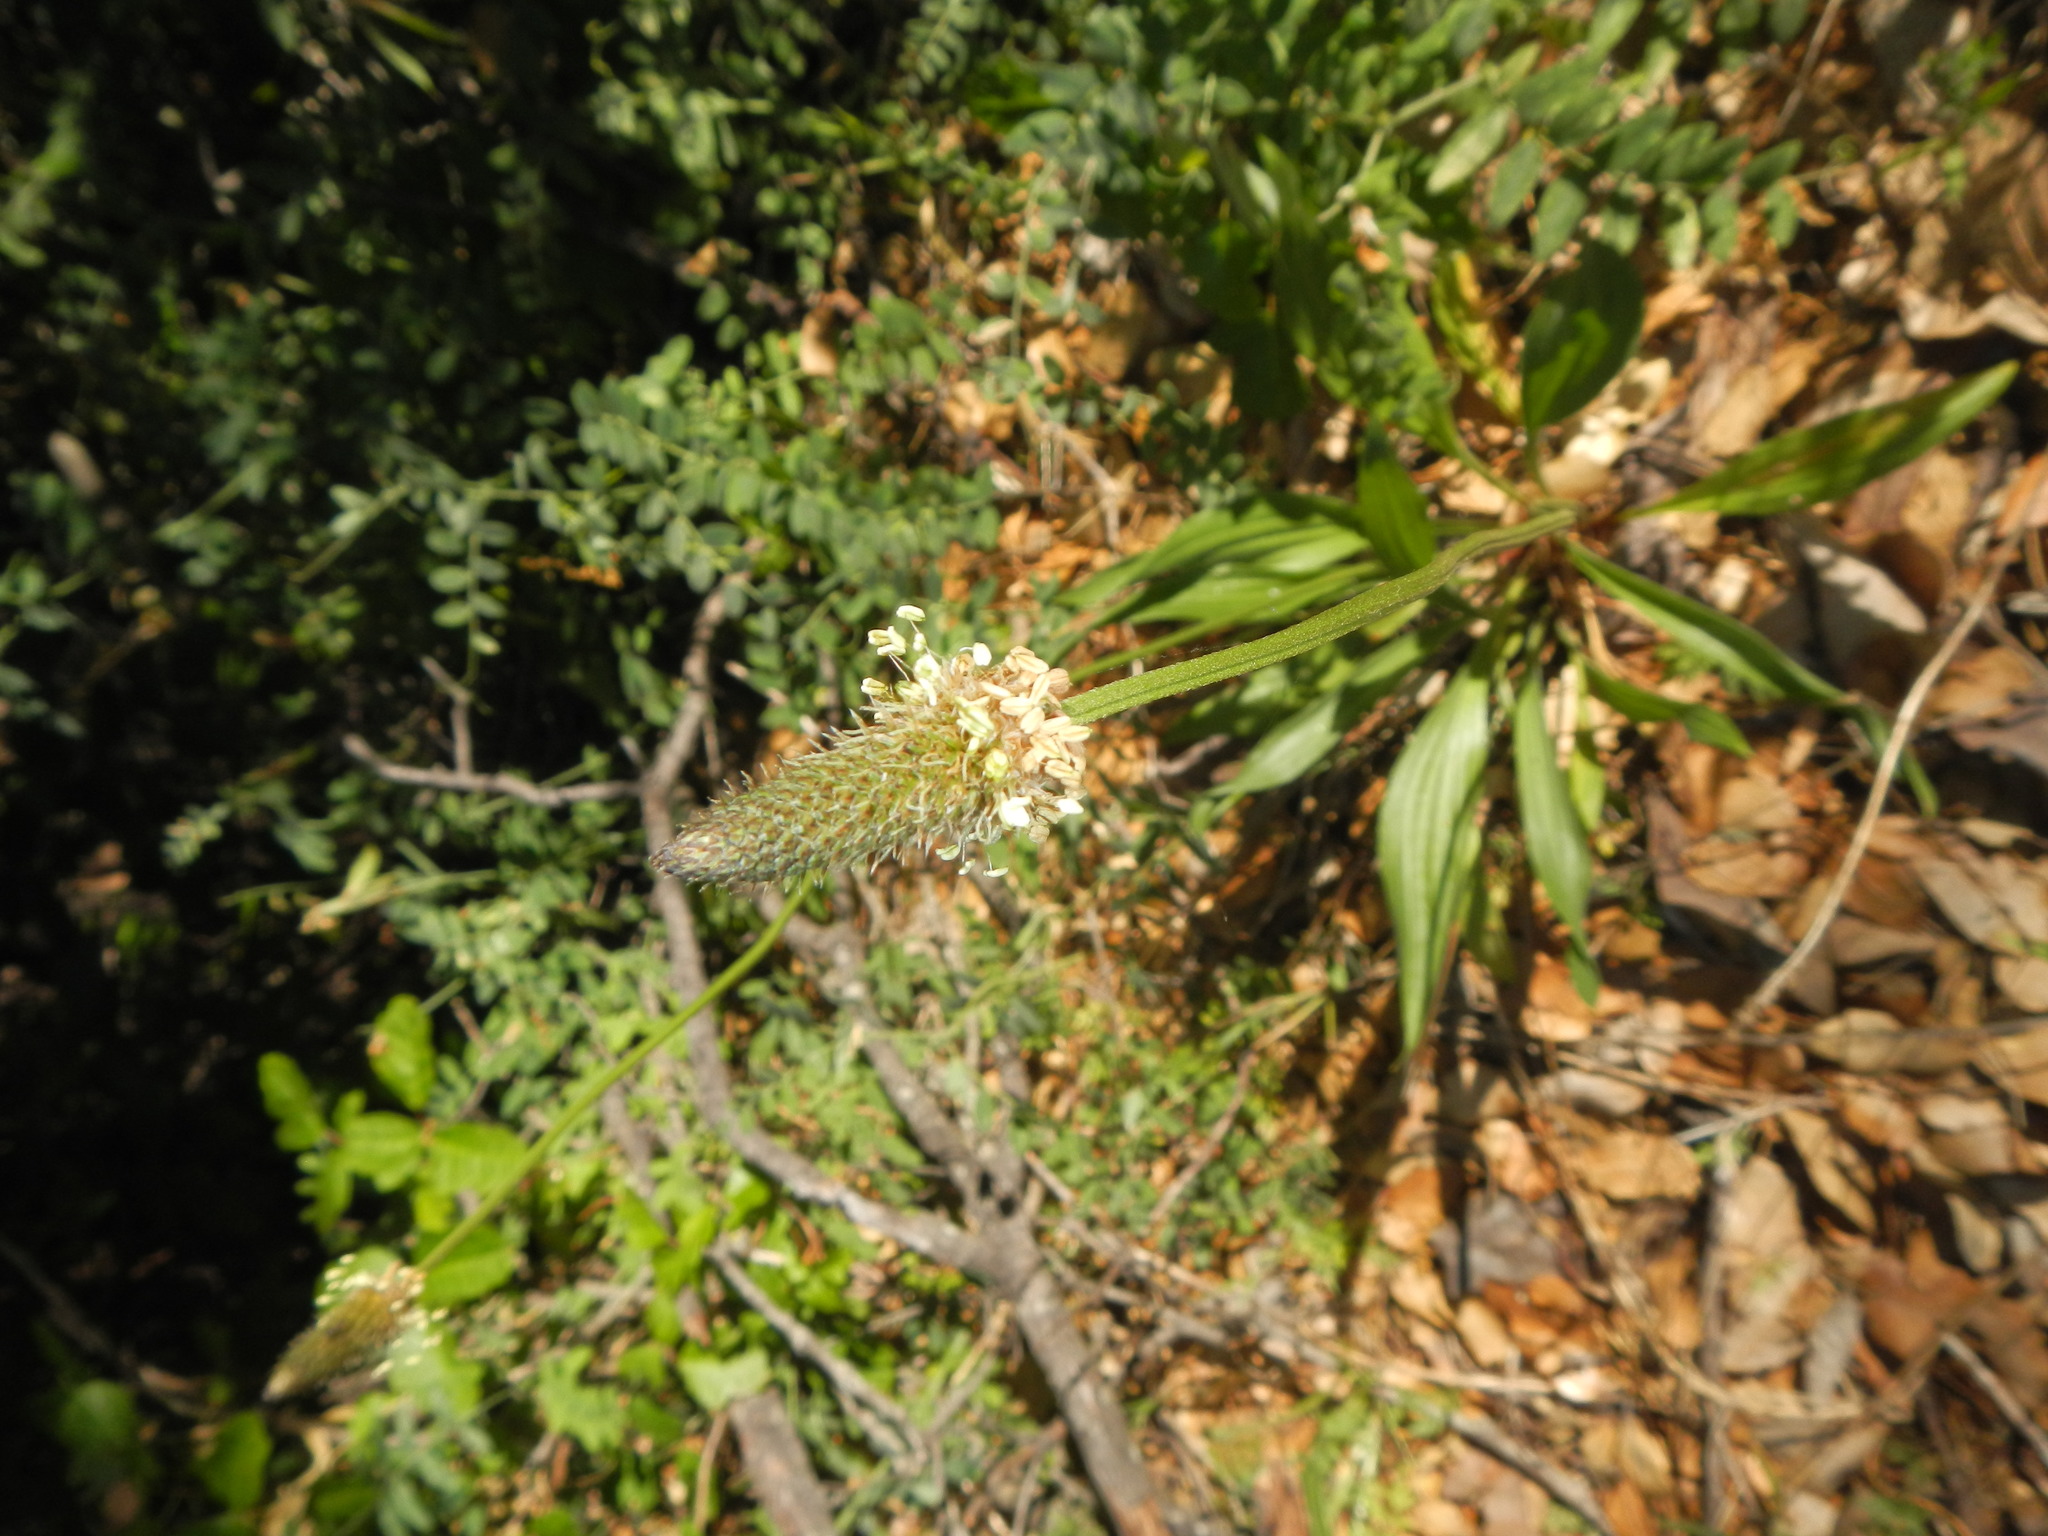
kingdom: Plantae
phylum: Tracheophyta
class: Magnoliopsida
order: Lamiales
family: Plantaginaceae
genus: Plantago
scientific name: Plantago lanceolata
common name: Ribwort plantain
